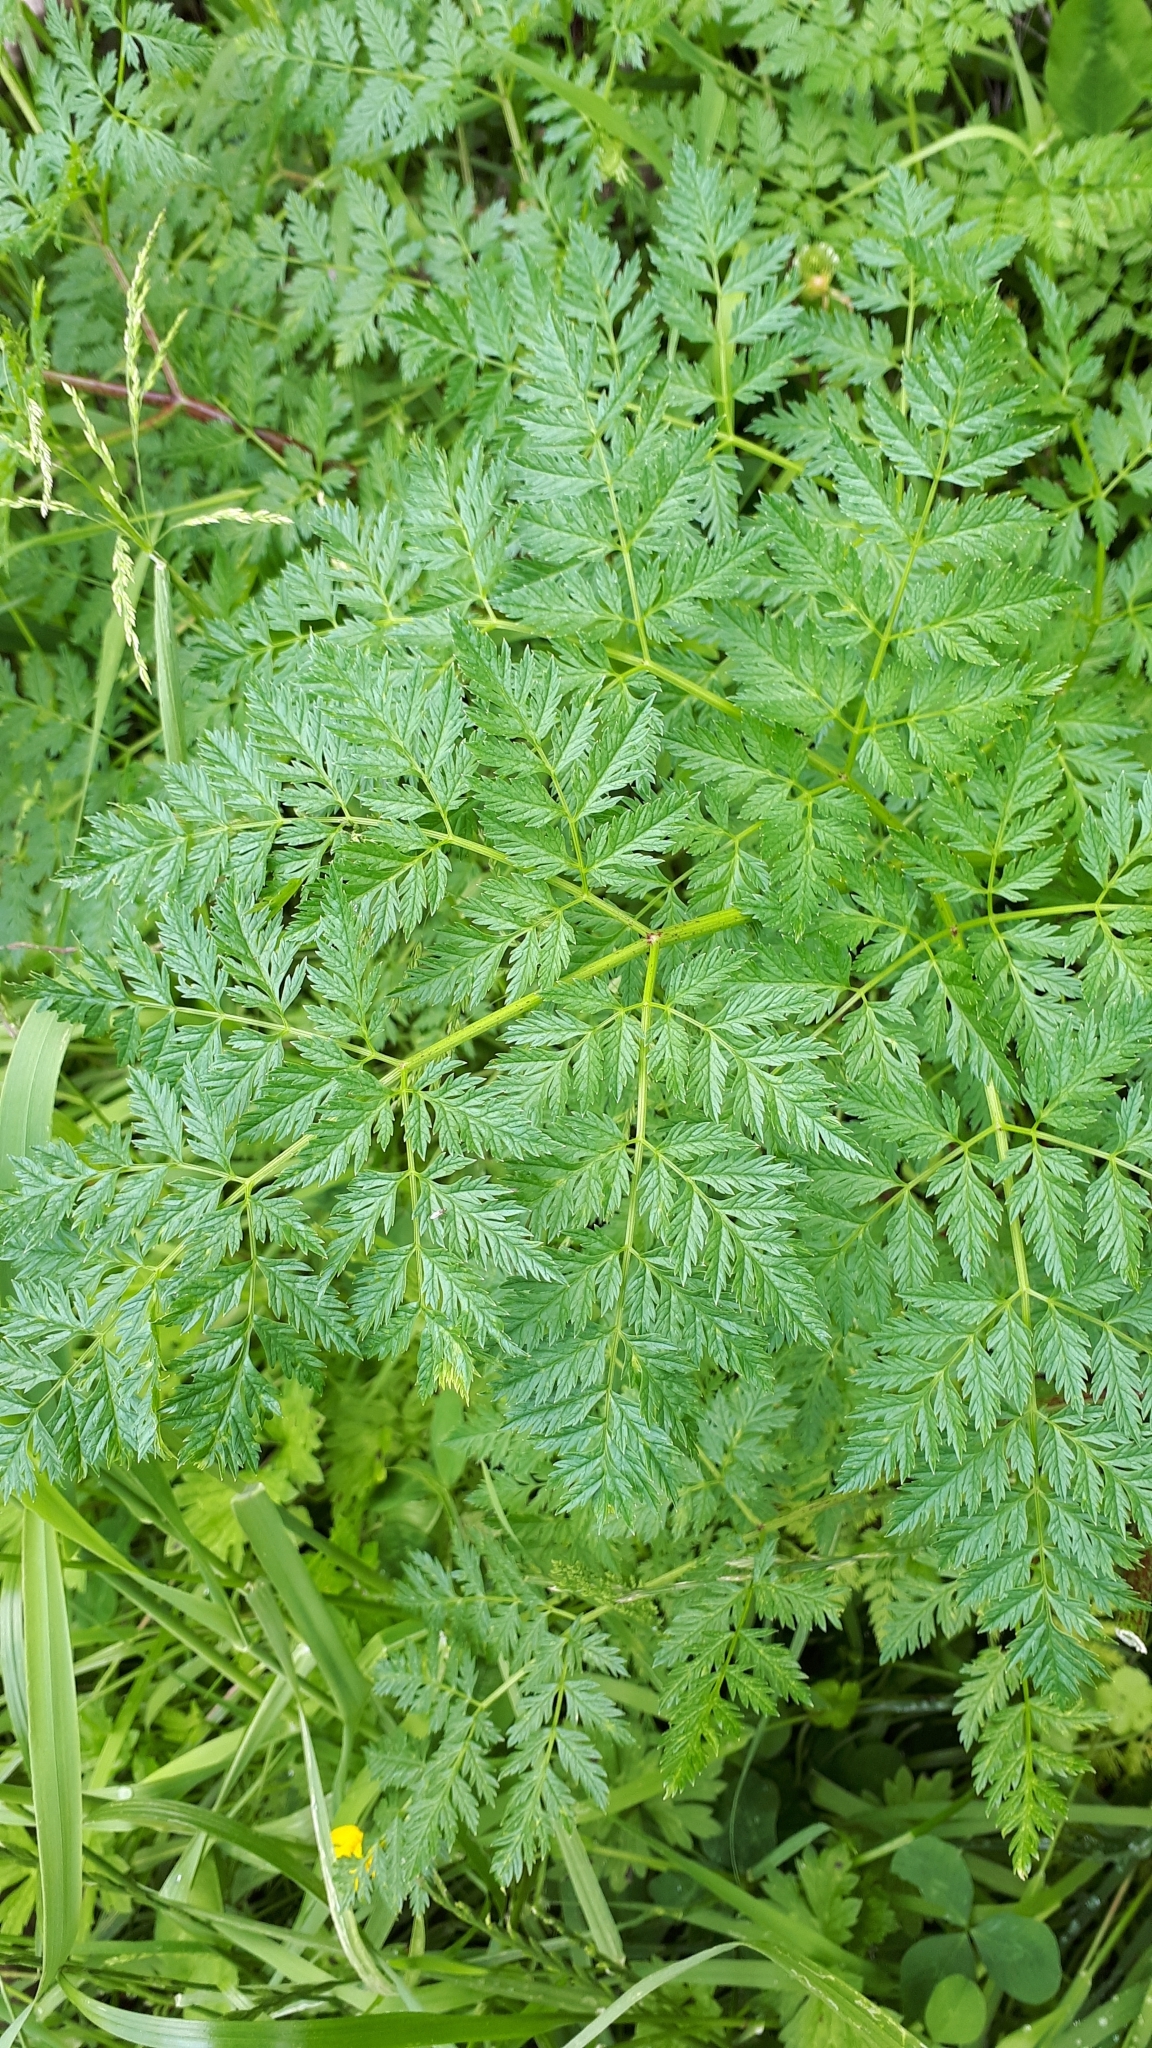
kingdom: Plantae
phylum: Tracheophyta
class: Magnoliopsida
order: Apiales
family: Apiaceae
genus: Conium
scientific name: Conium maculatum
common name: Hemlock
